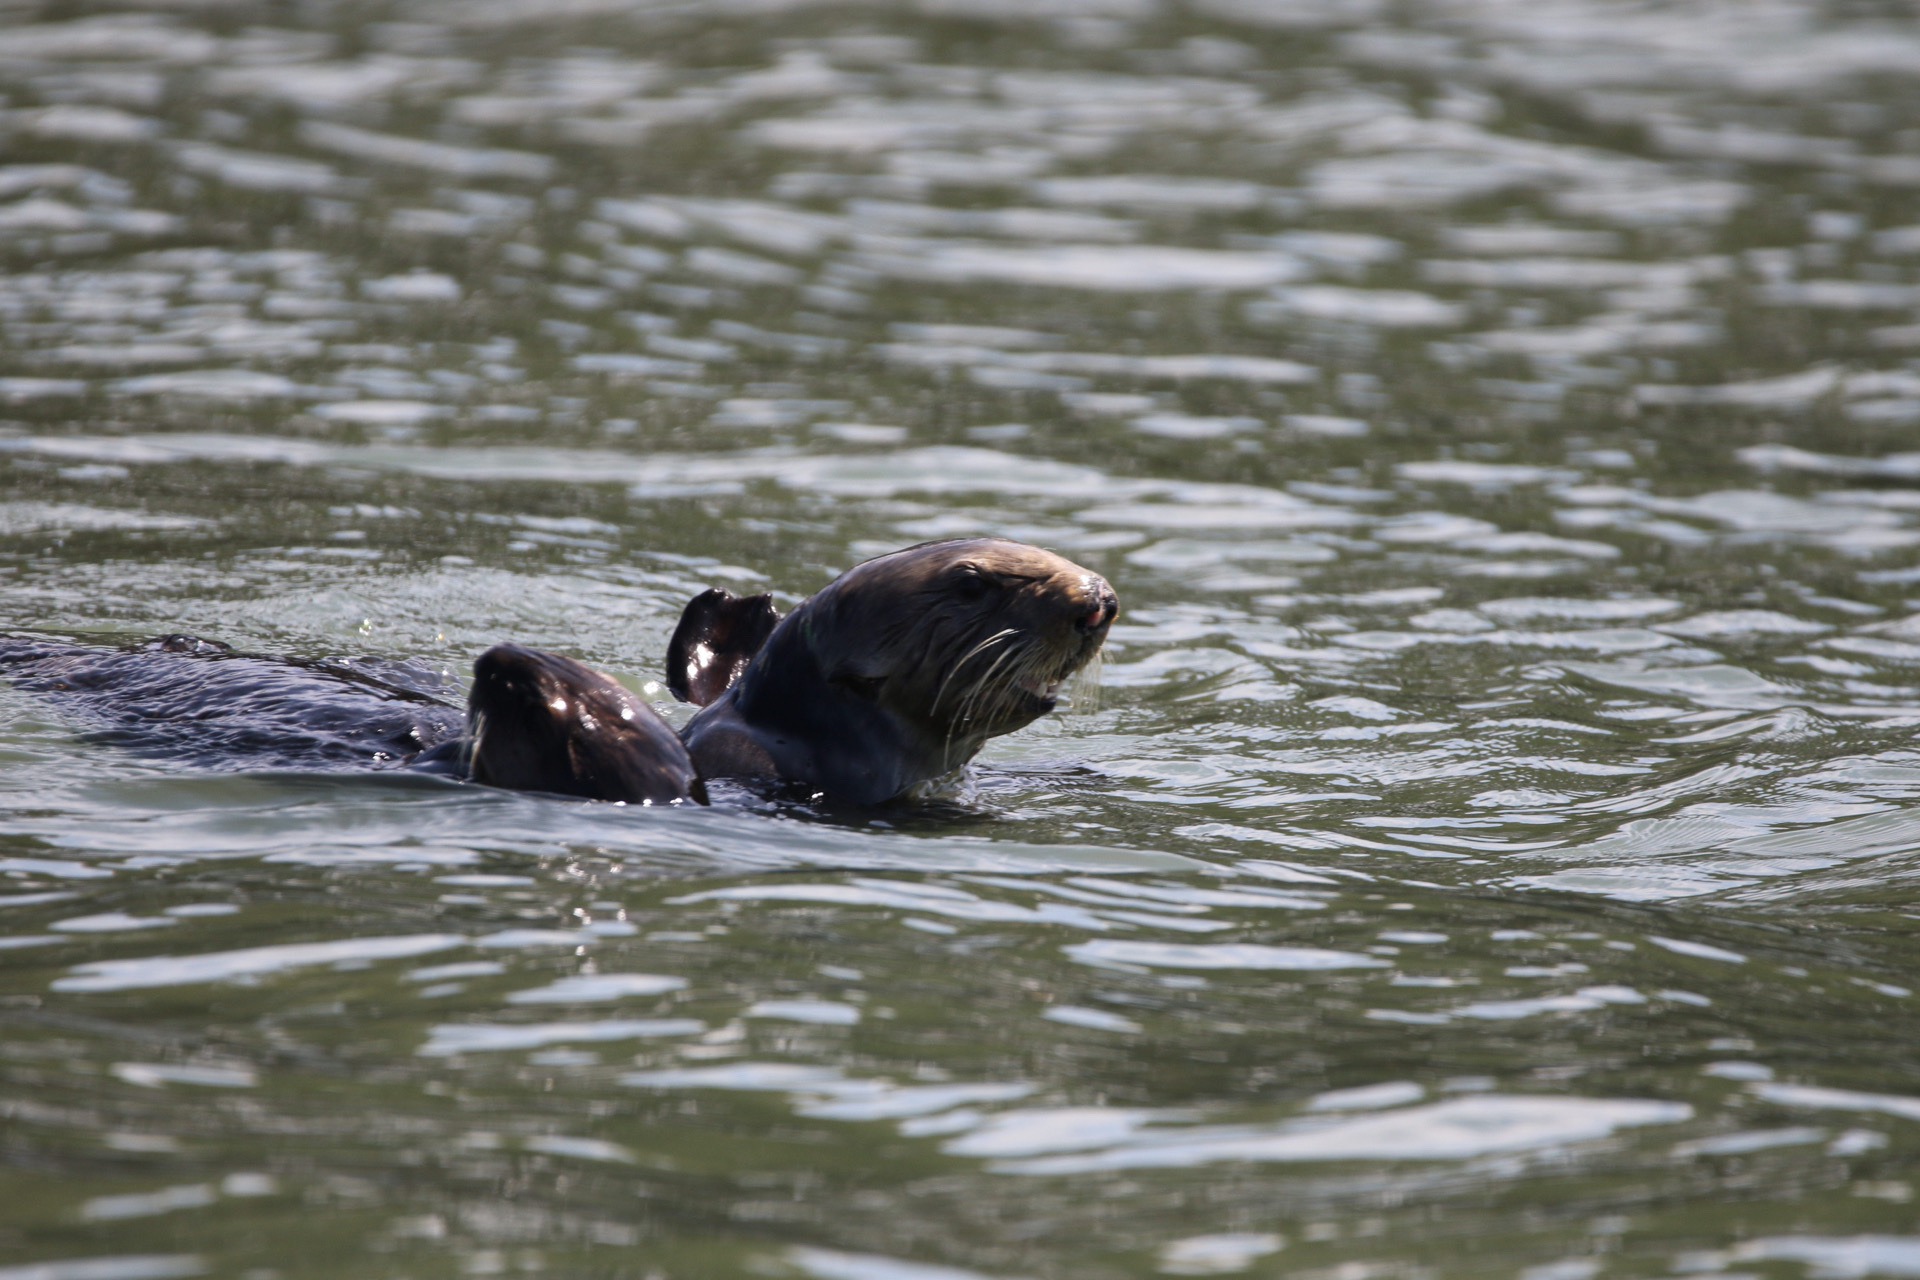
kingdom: Animalia
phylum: Chordata
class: Mammalia
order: Carnivora
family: Mustelidae
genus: Enhydra
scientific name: Enhydra lutris
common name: Sea otter
